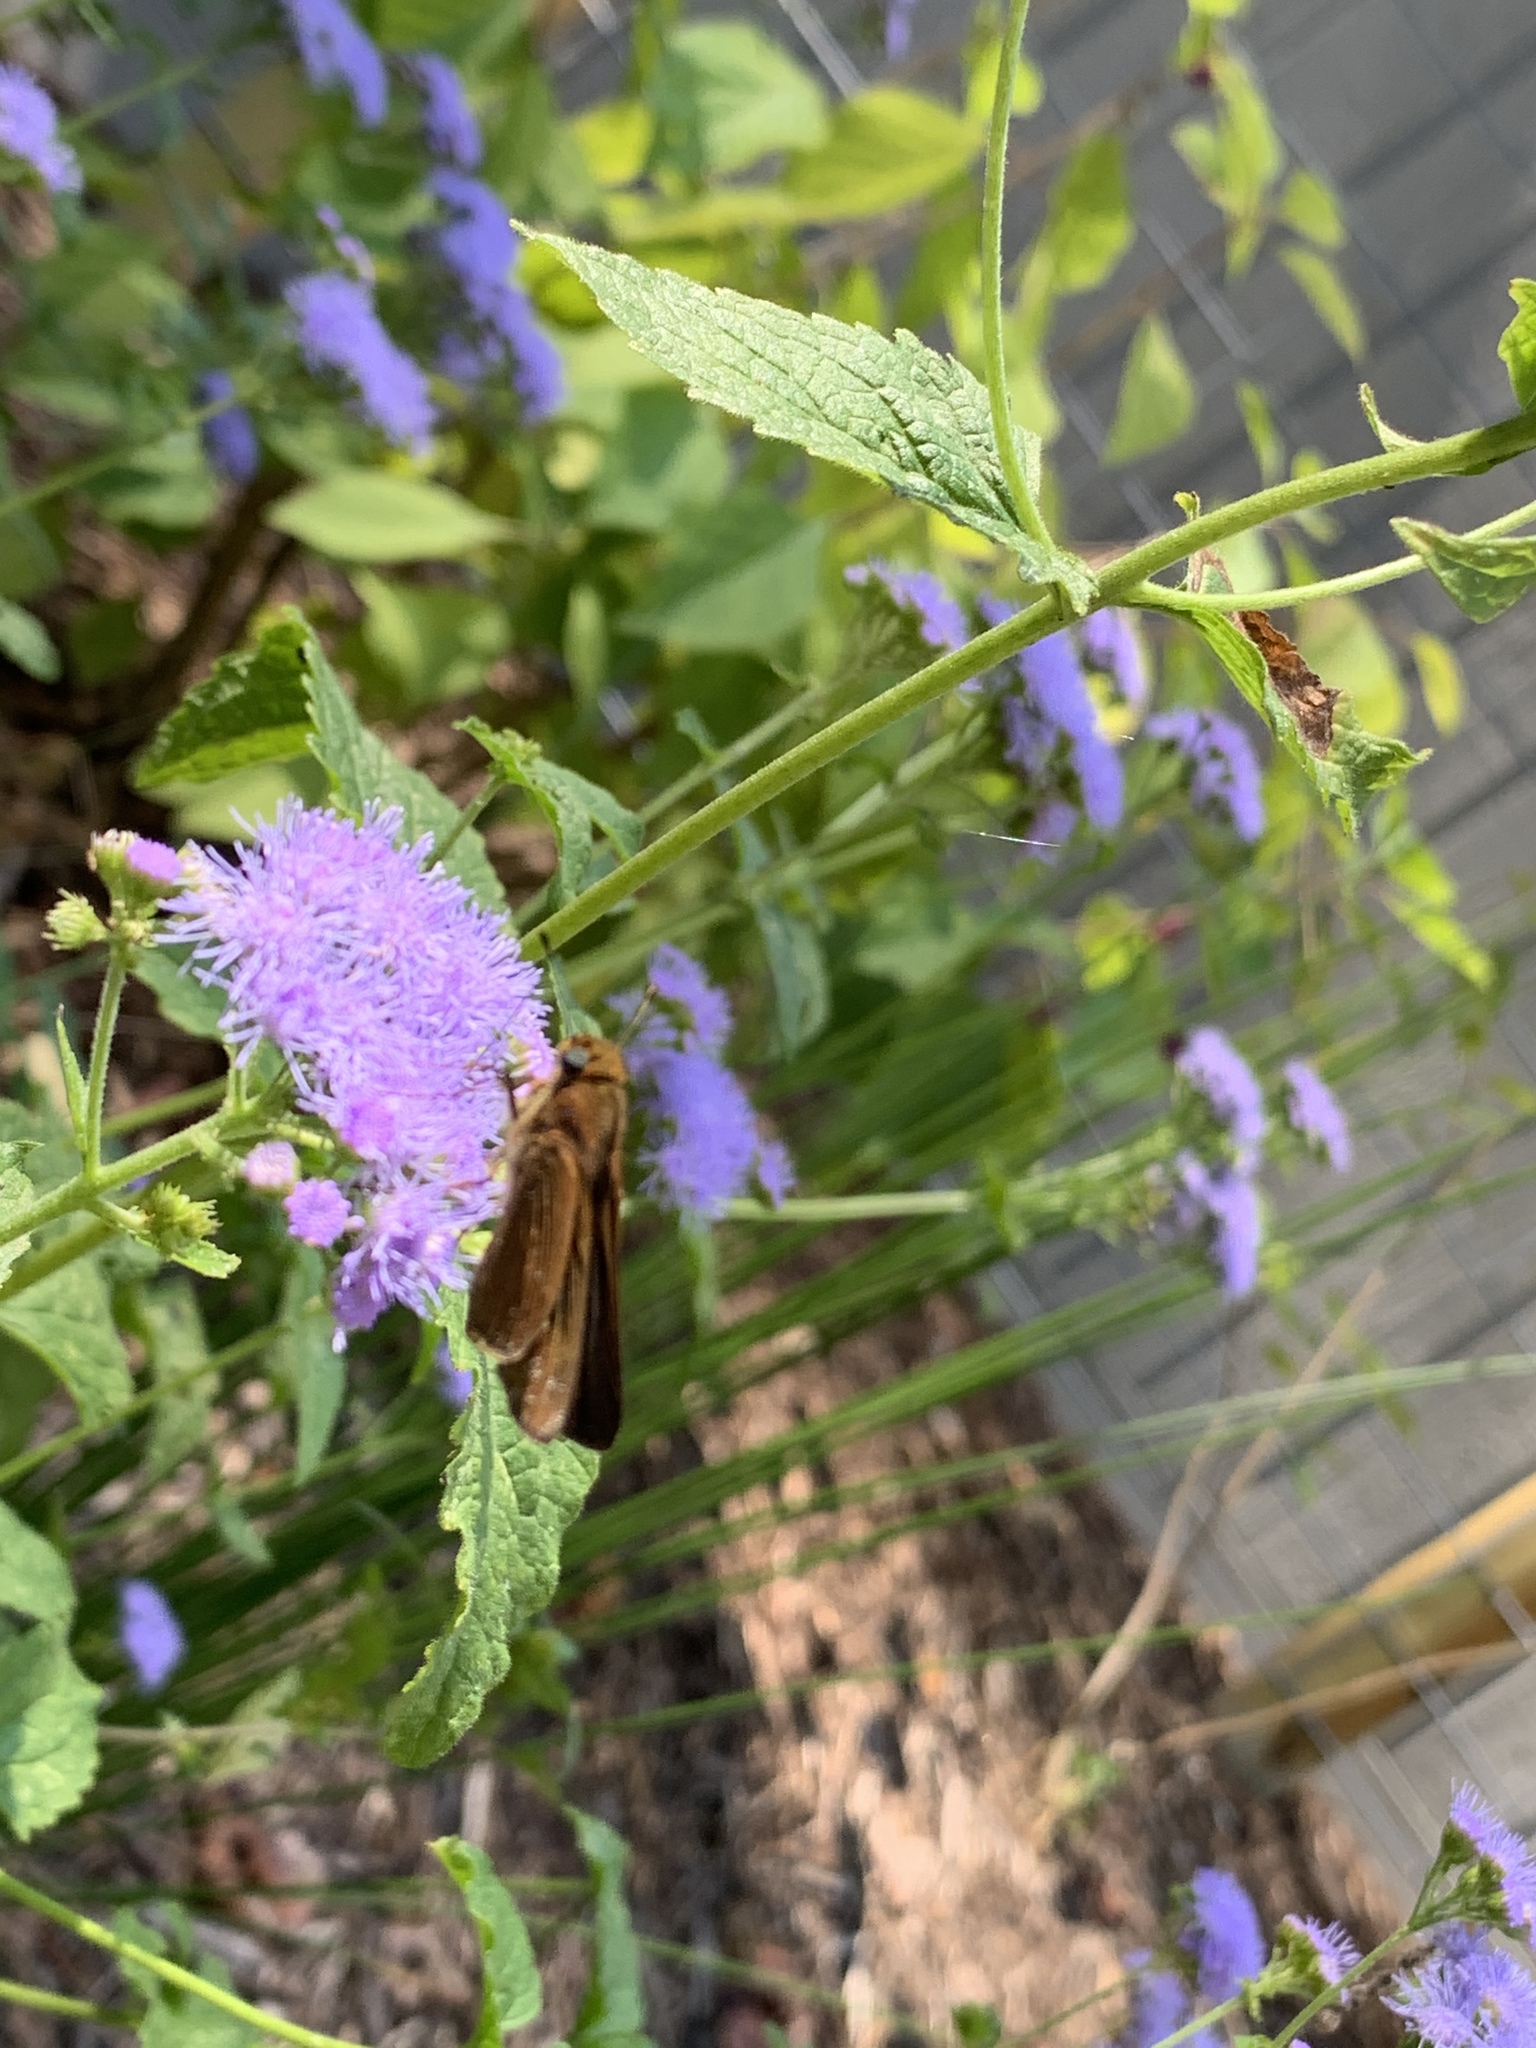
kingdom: Animalia
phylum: Arthropoda
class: Insecta
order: Lepidoptera
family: Hesperiidae
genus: Panoquina
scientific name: Panoquina ocola
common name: Ocola skipper
